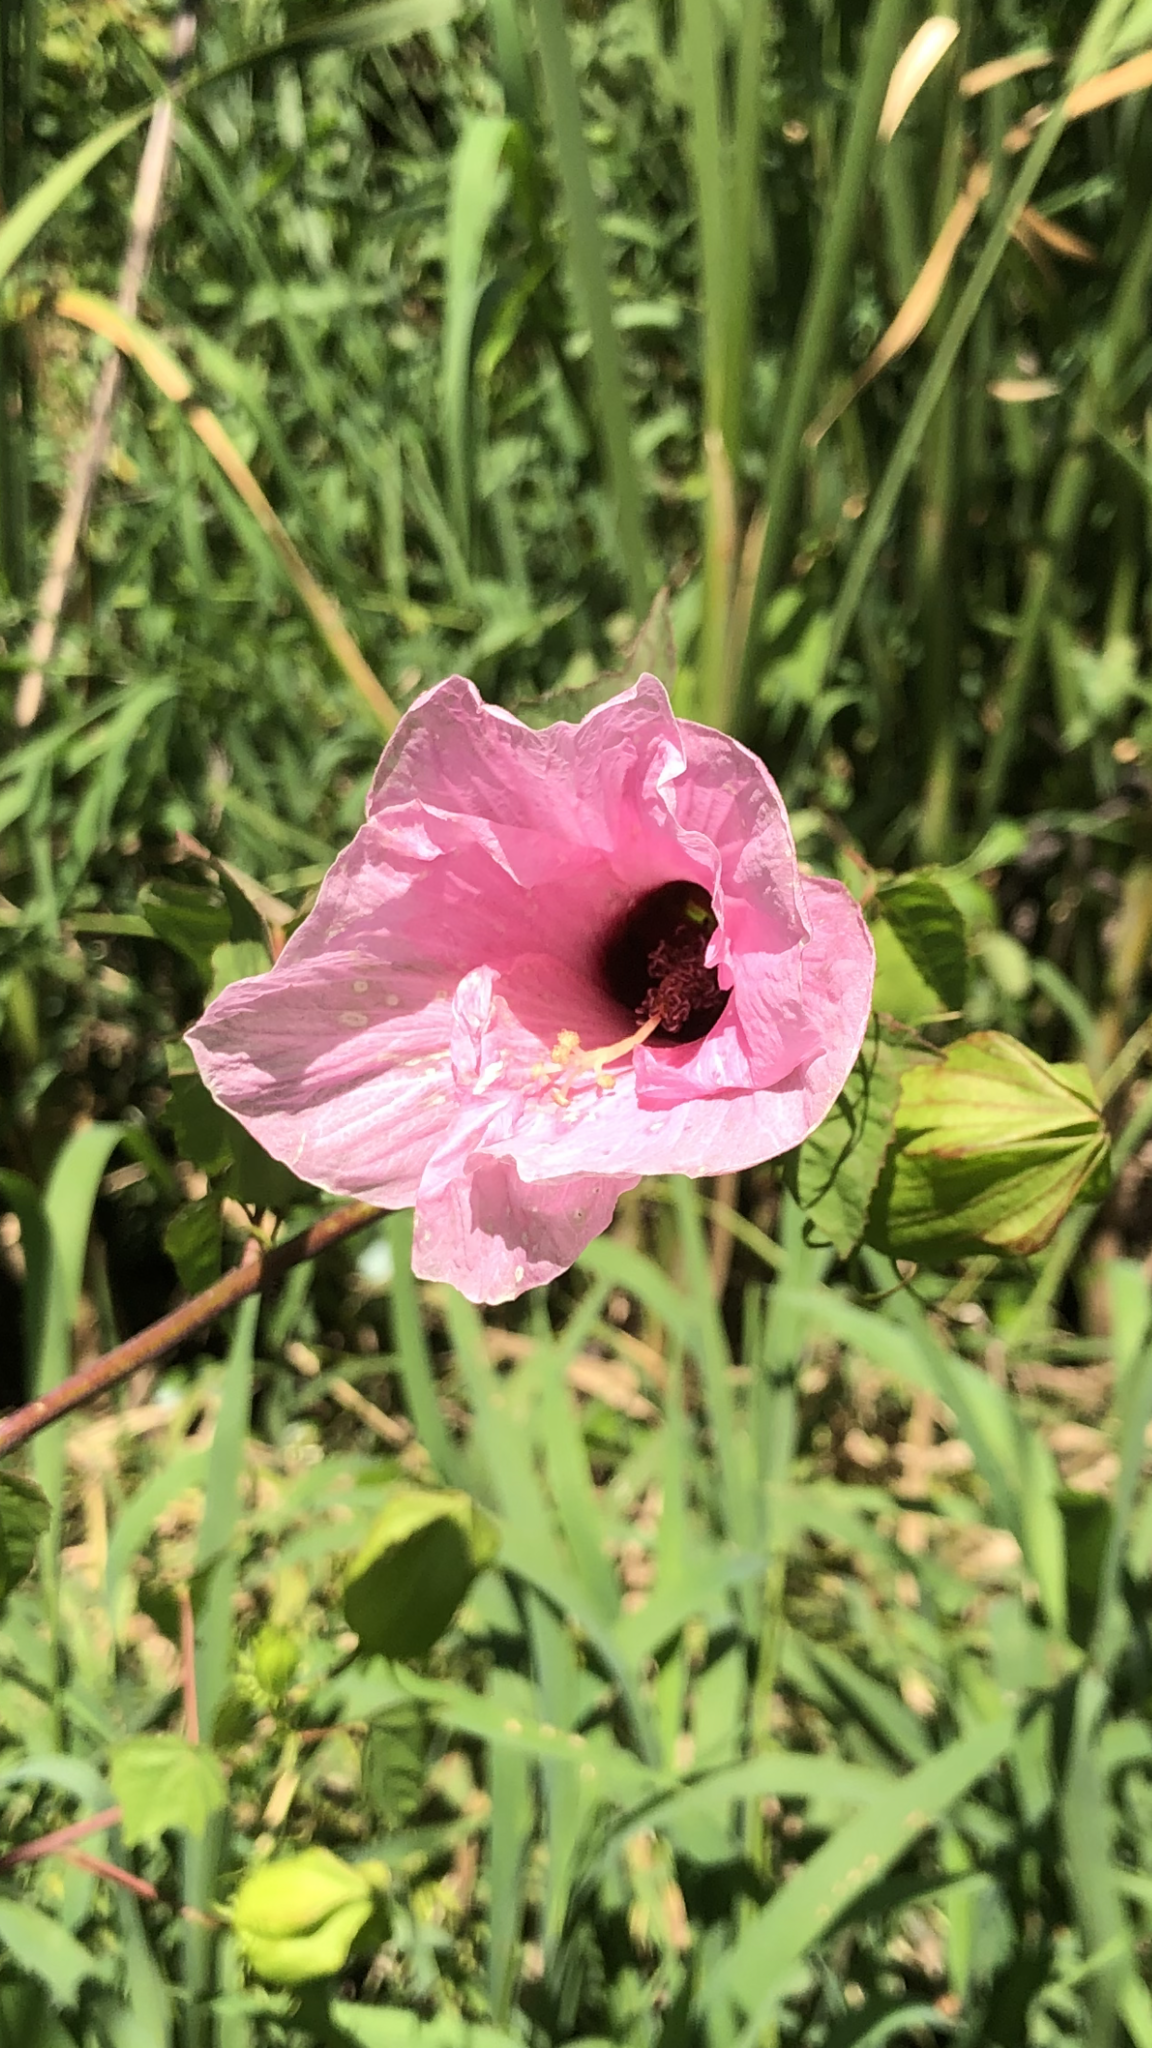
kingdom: Plantae
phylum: Tracheophyta
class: Magnoliopsida
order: Malvales
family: Malvaceae
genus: Hibiscus
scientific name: Hibiscus laevis
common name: Scarlet rose-mallow
